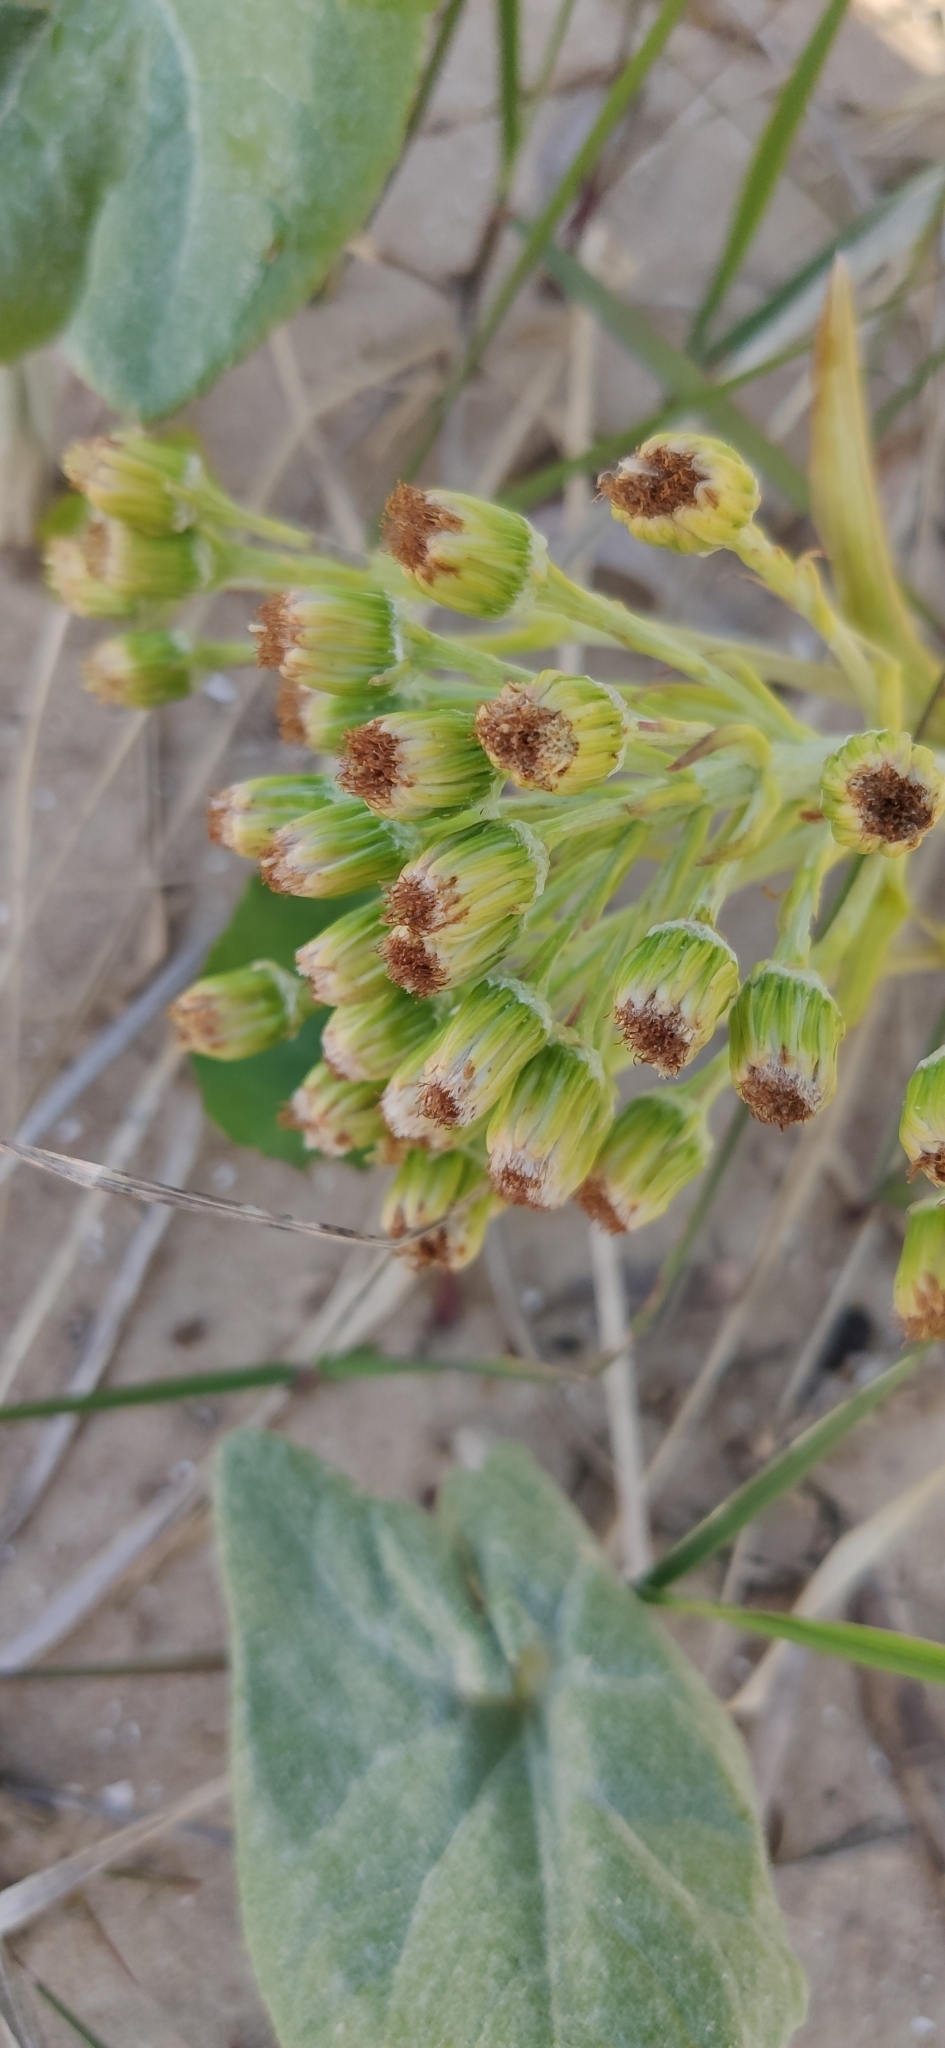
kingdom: Plantae
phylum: Tracheophyta
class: Magnoliopsida
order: Asterales
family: Asteraceae
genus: Petasites
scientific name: Petasites spurius
